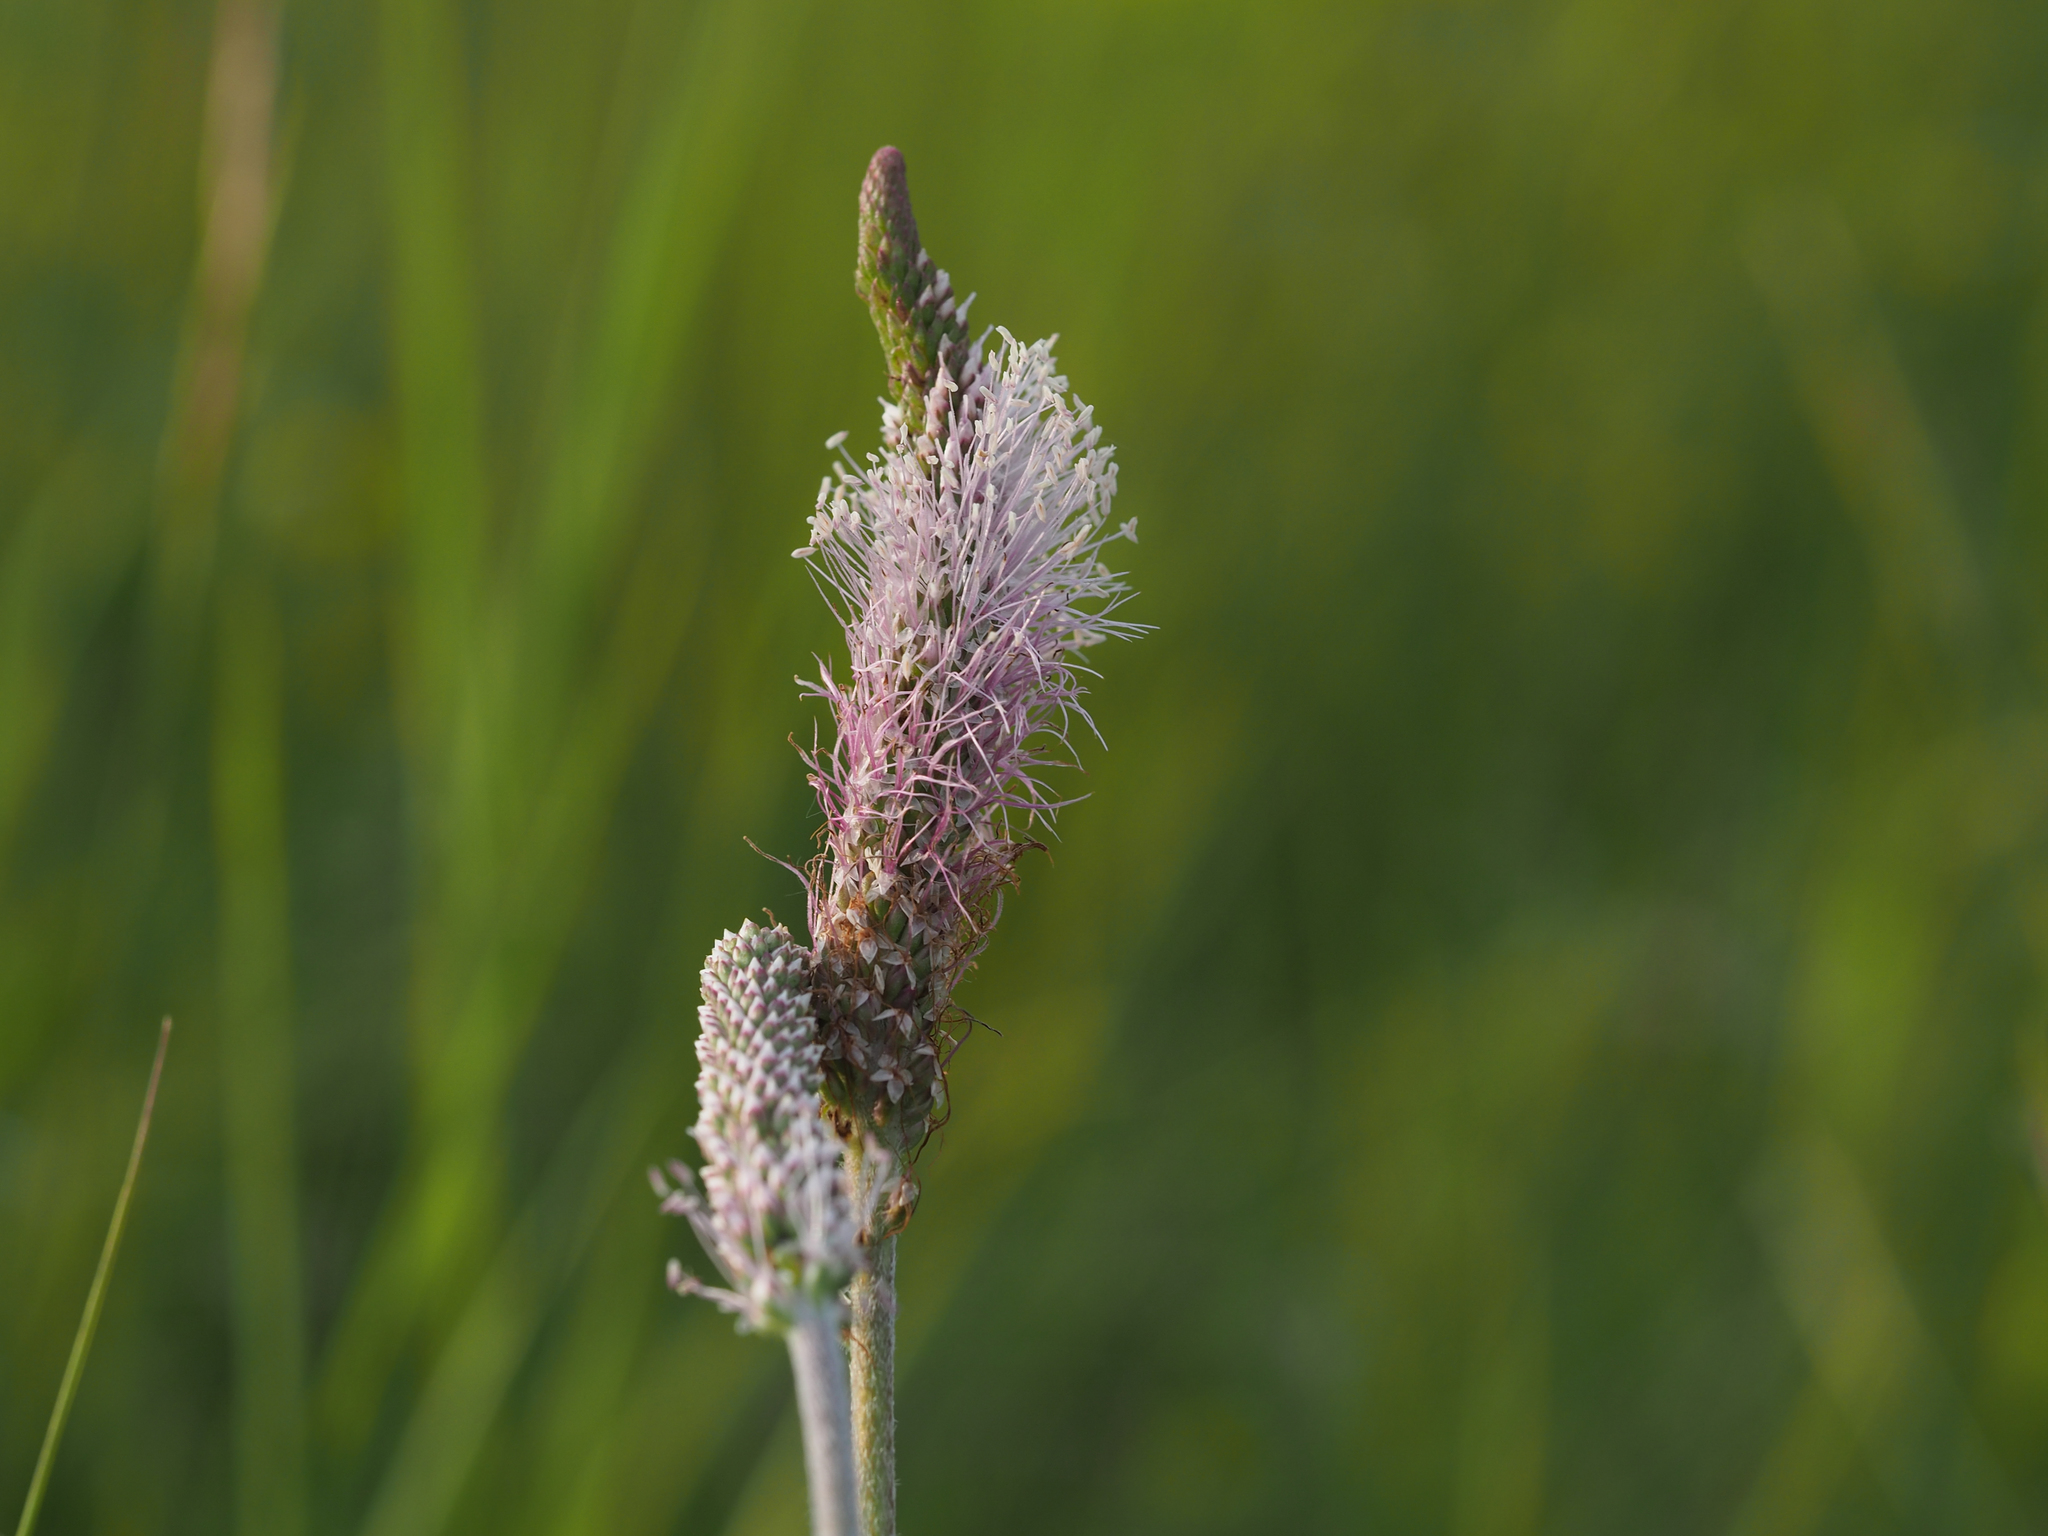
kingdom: Plantae
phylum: Tracheophyta
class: Magnoliopsida
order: Lamiales
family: Plantaginaceae
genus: Plantago
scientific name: Plantago media
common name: Hoary plantain
